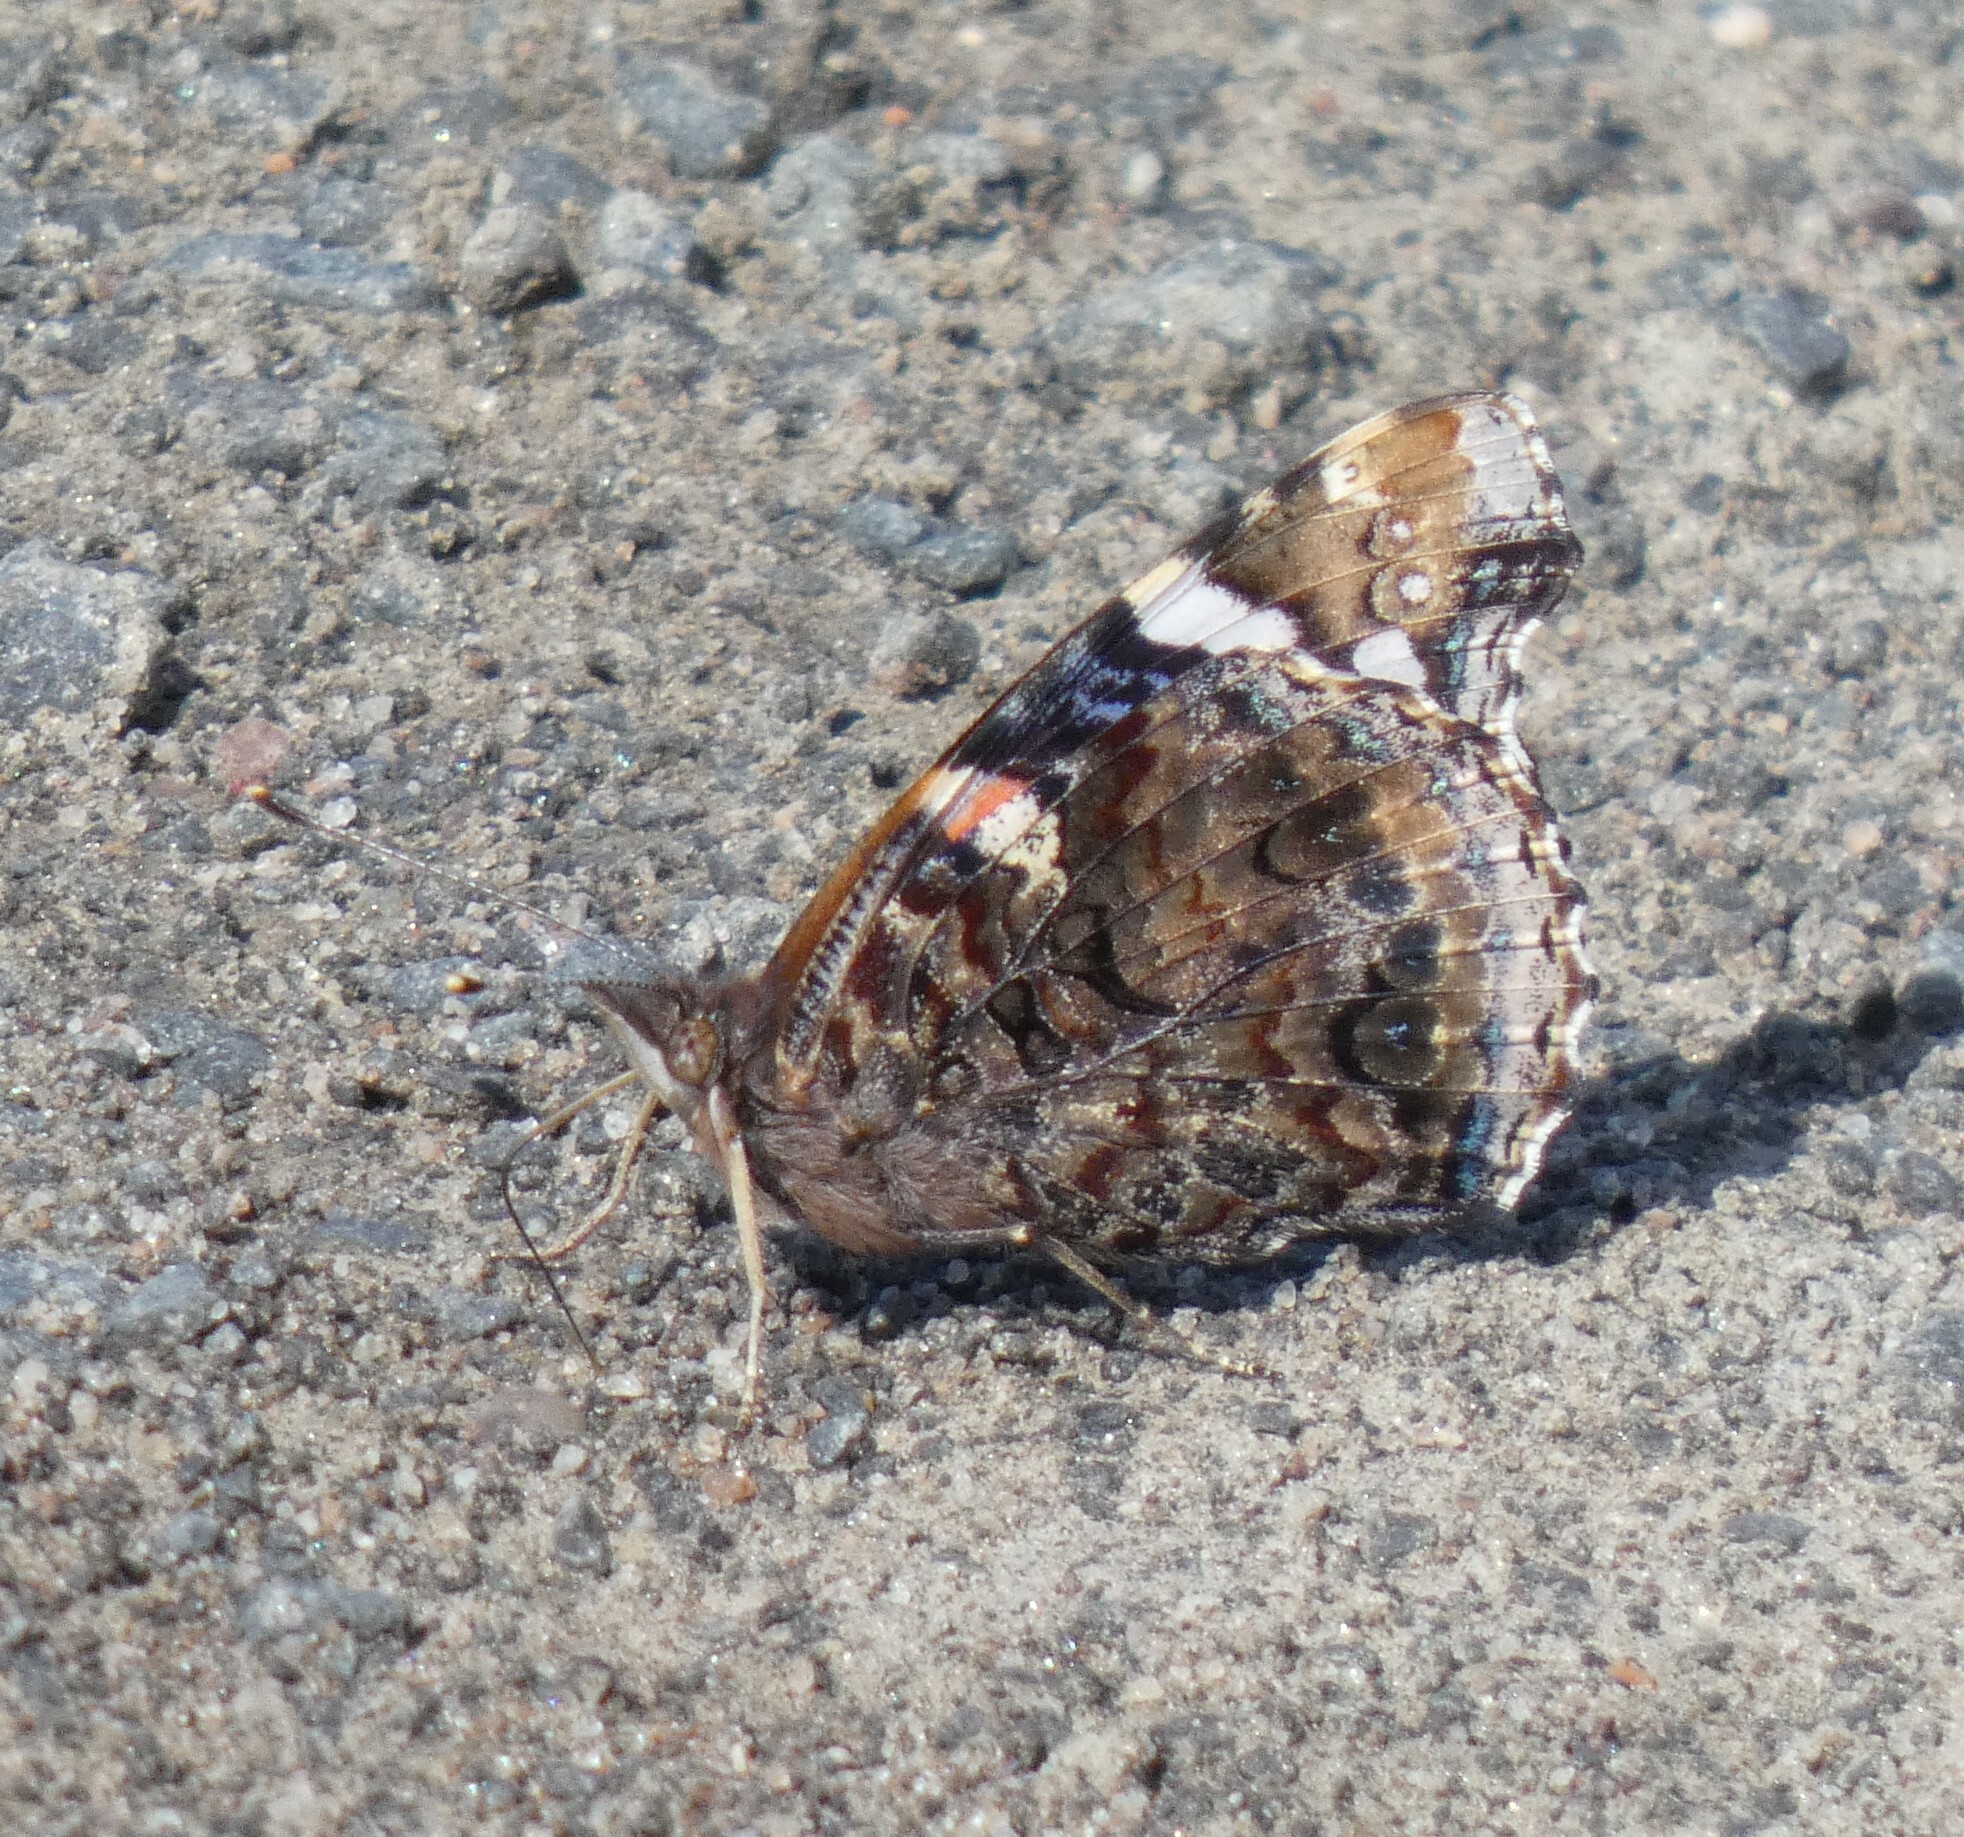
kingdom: Animalia
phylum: Arthropoda
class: Insecta
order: Lepidoptera
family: Nymphalidae
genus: Vanessa
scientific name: Vanessa atalanta
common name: Red admiral
